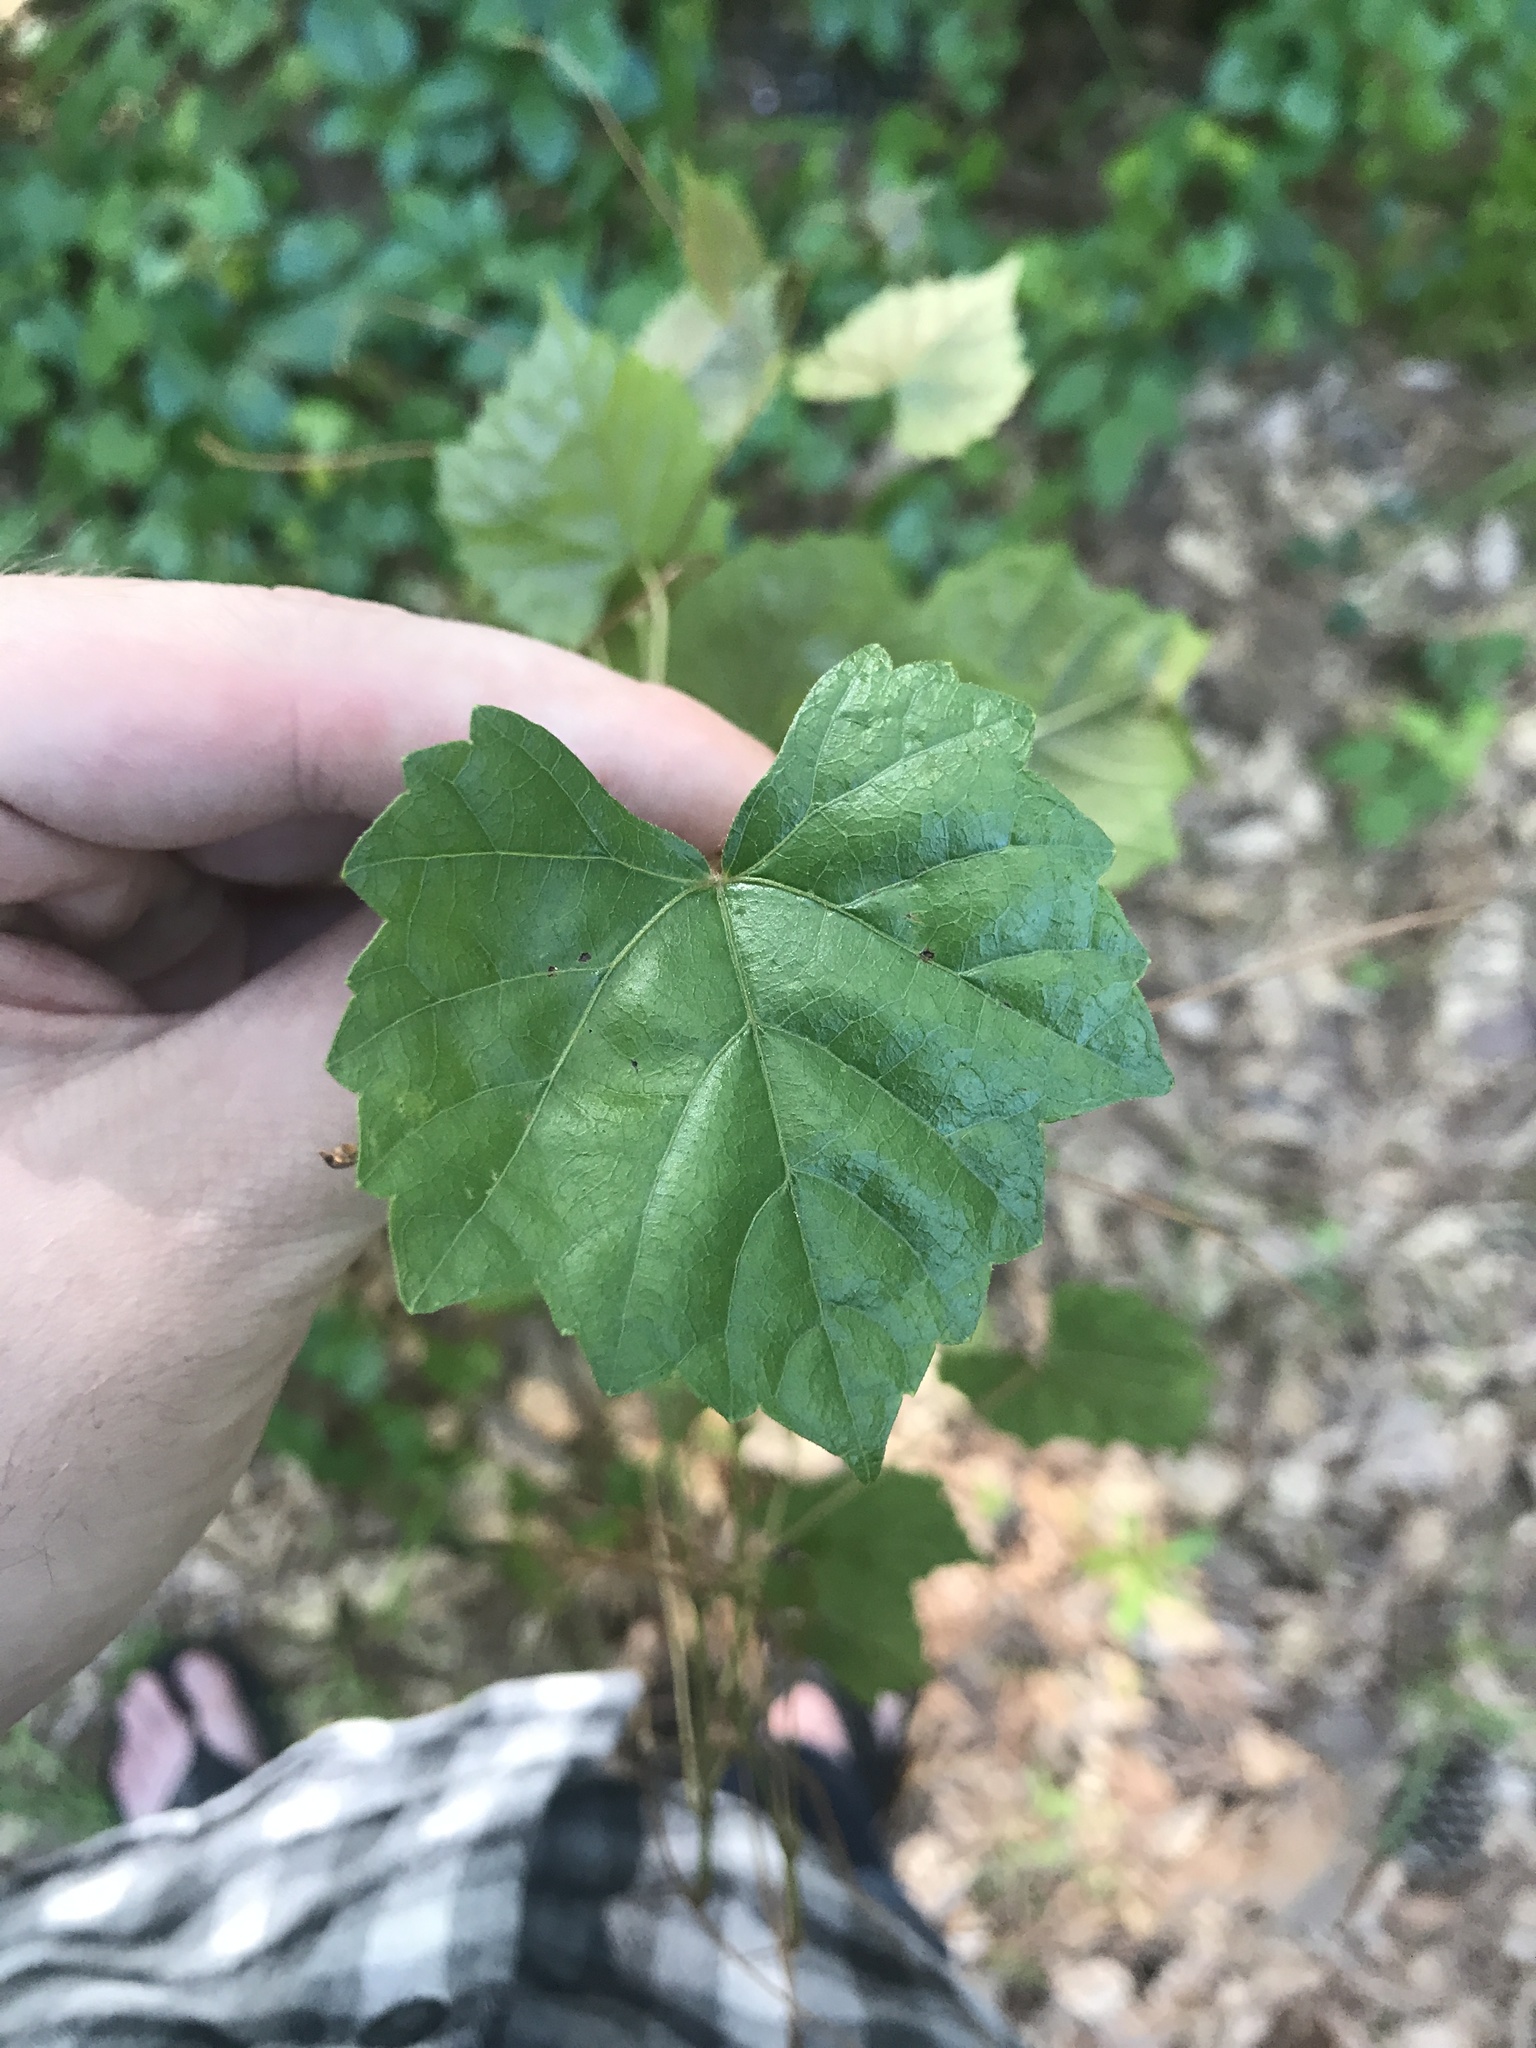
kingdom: Plantae
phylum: Tracheophyta
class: Magnoliopsida
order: Vitales
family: Vitaceae
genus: Vitis
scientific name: Vitis rotundifolia
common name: Muscadine grape
